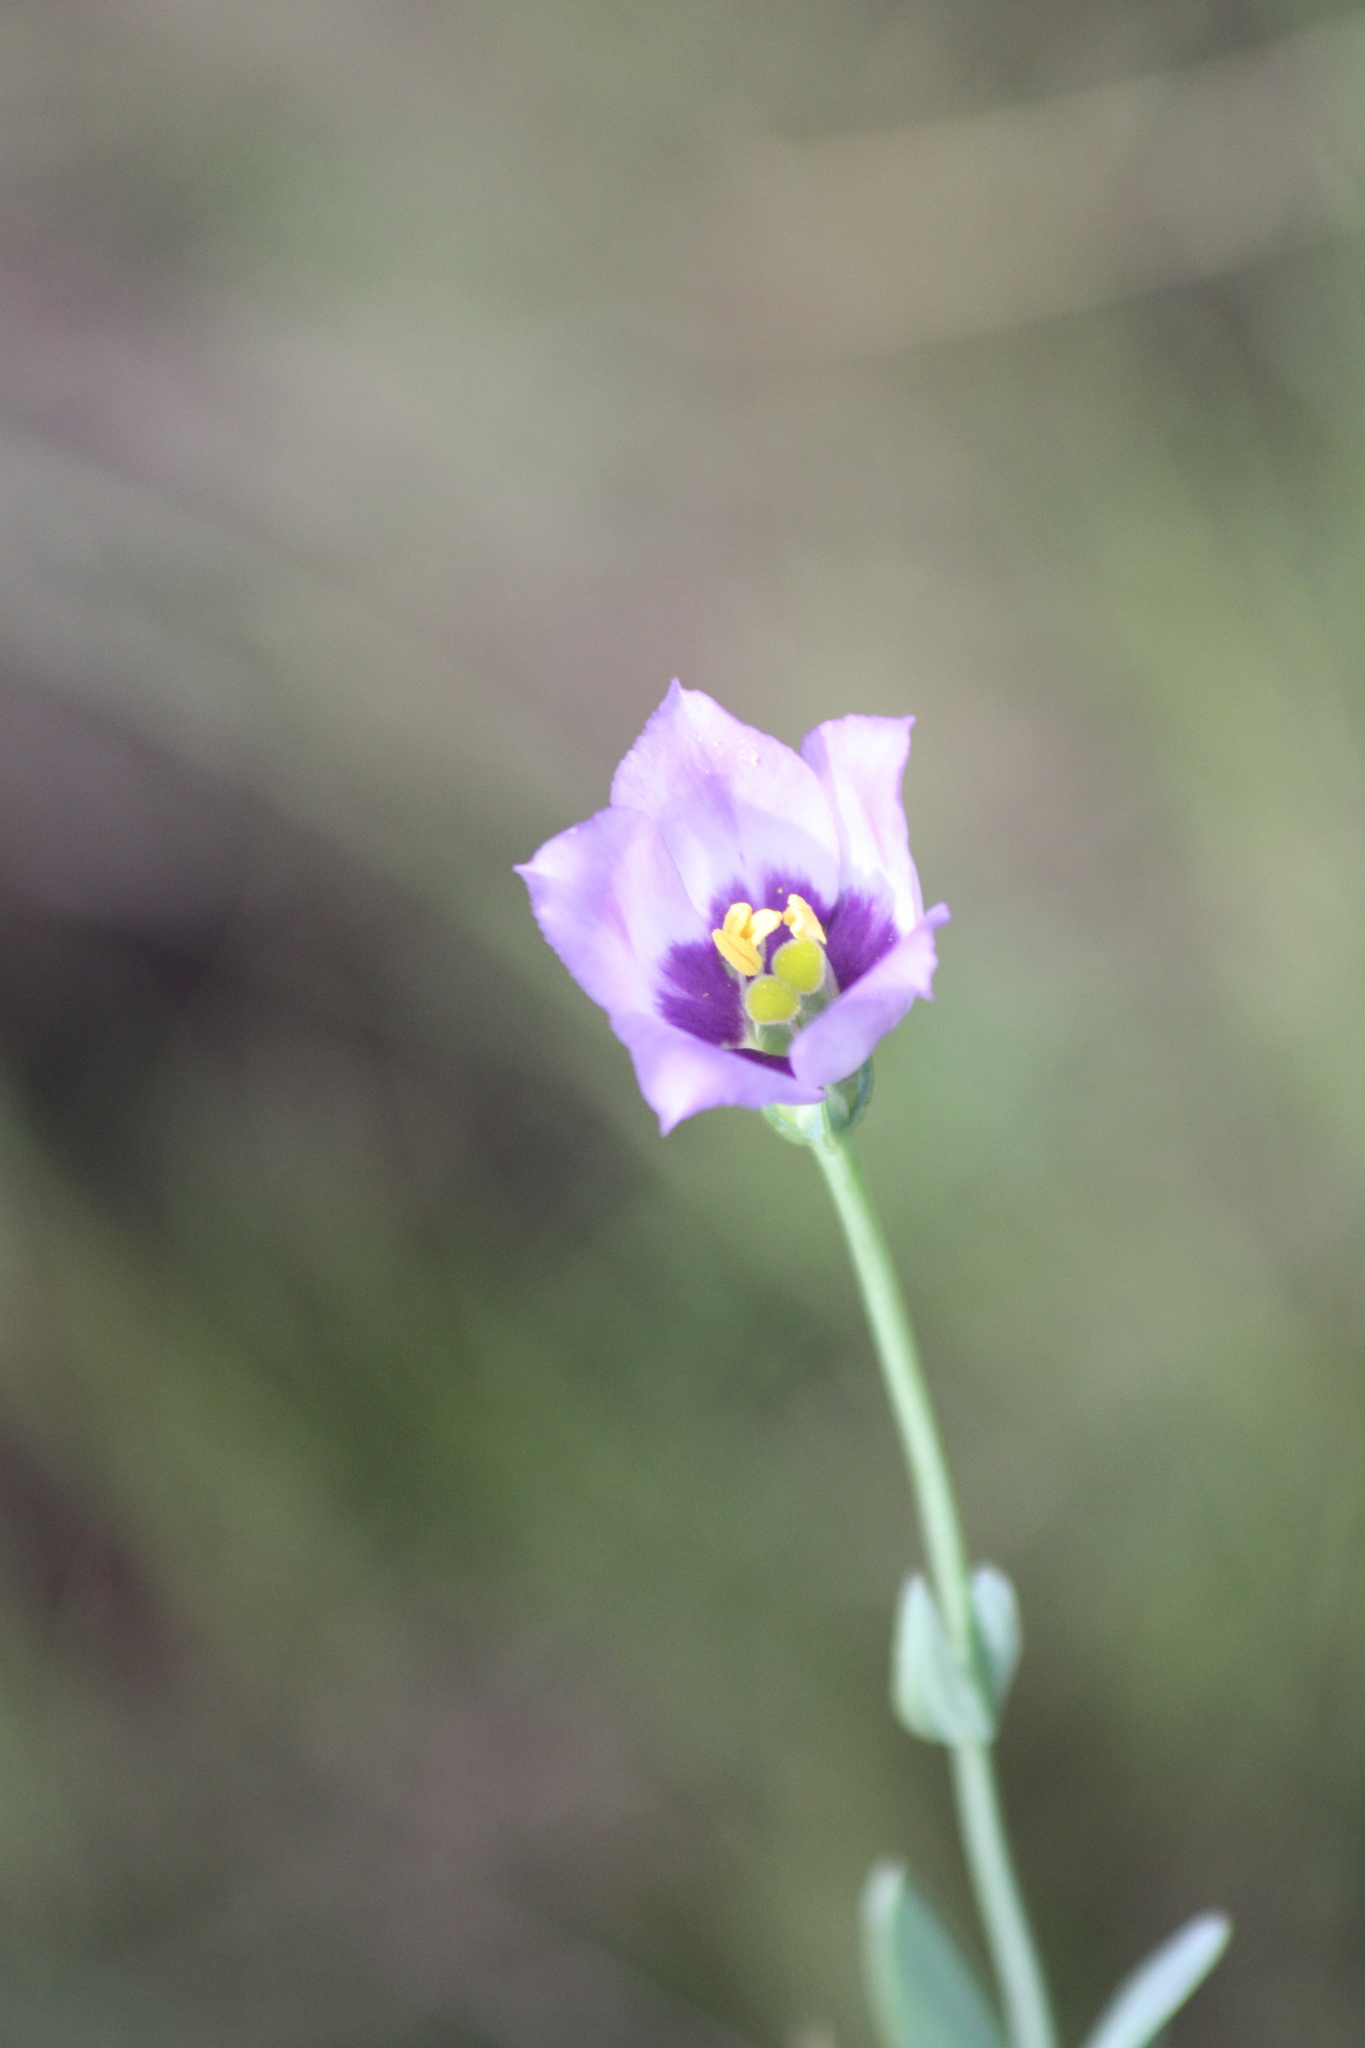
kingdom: Plantae
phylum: Tracheophyta
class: Magnoliopsida
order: Gentianales
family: Gentianaceae
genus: Eustoma
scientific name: Eustoma exaltatum
